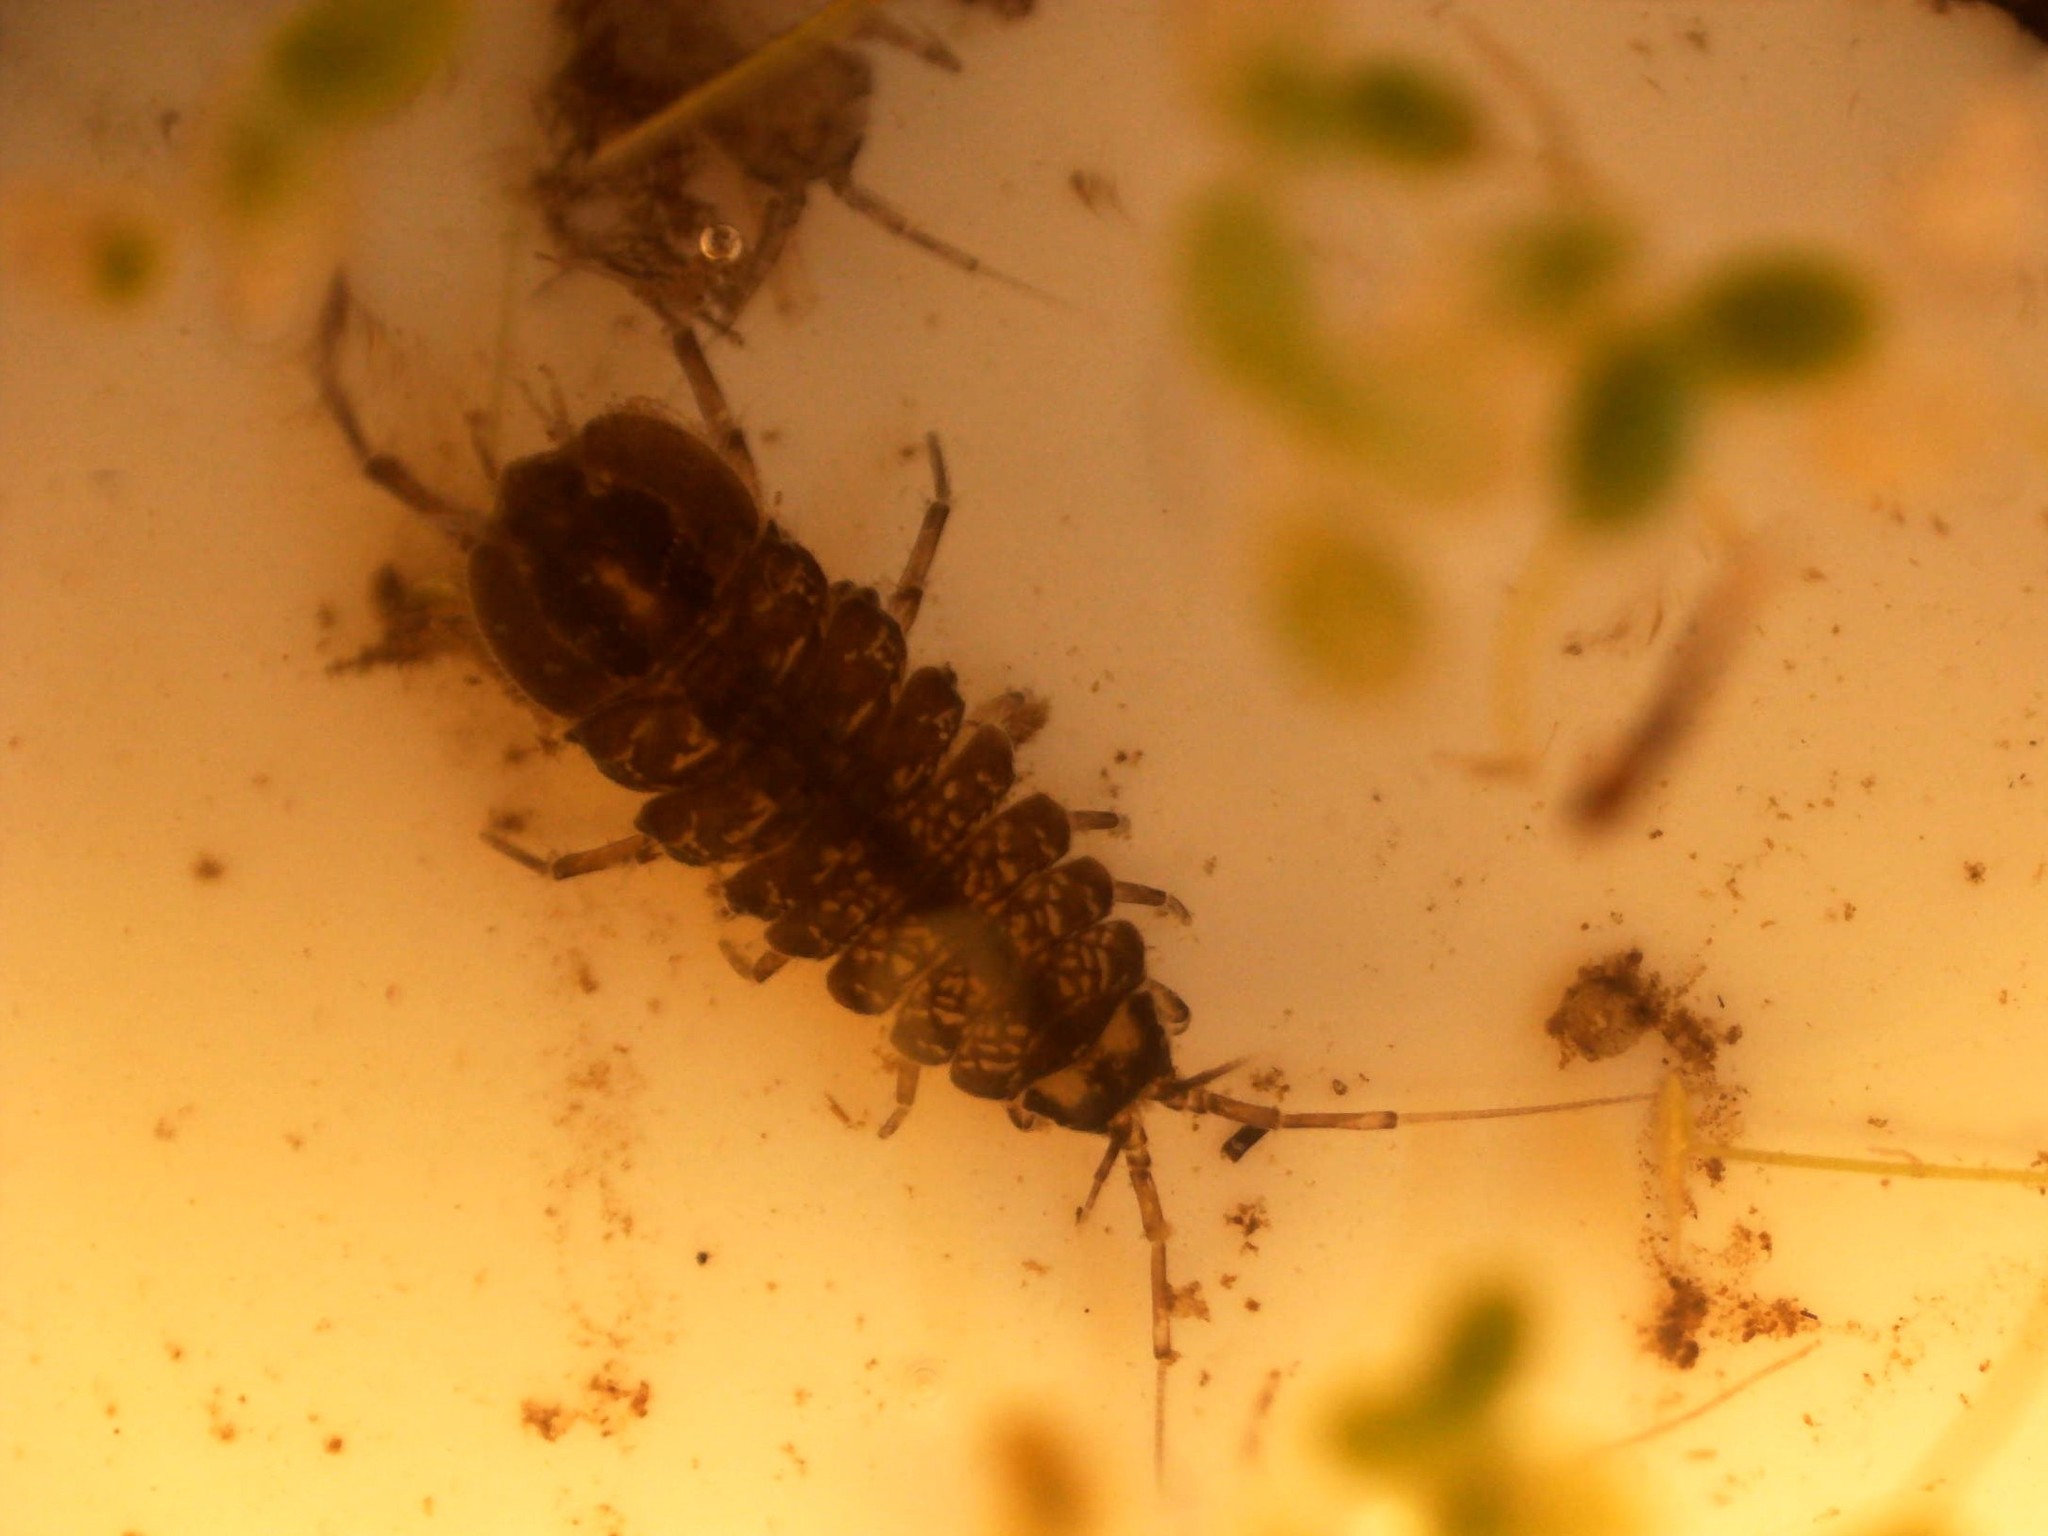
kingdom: Animalia
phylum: Arthropoda
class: Malacostraca
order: Isopoda
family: Asellidae
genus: Asellus
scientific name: Asellus aquaticus
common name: Water hog lice/slaters
